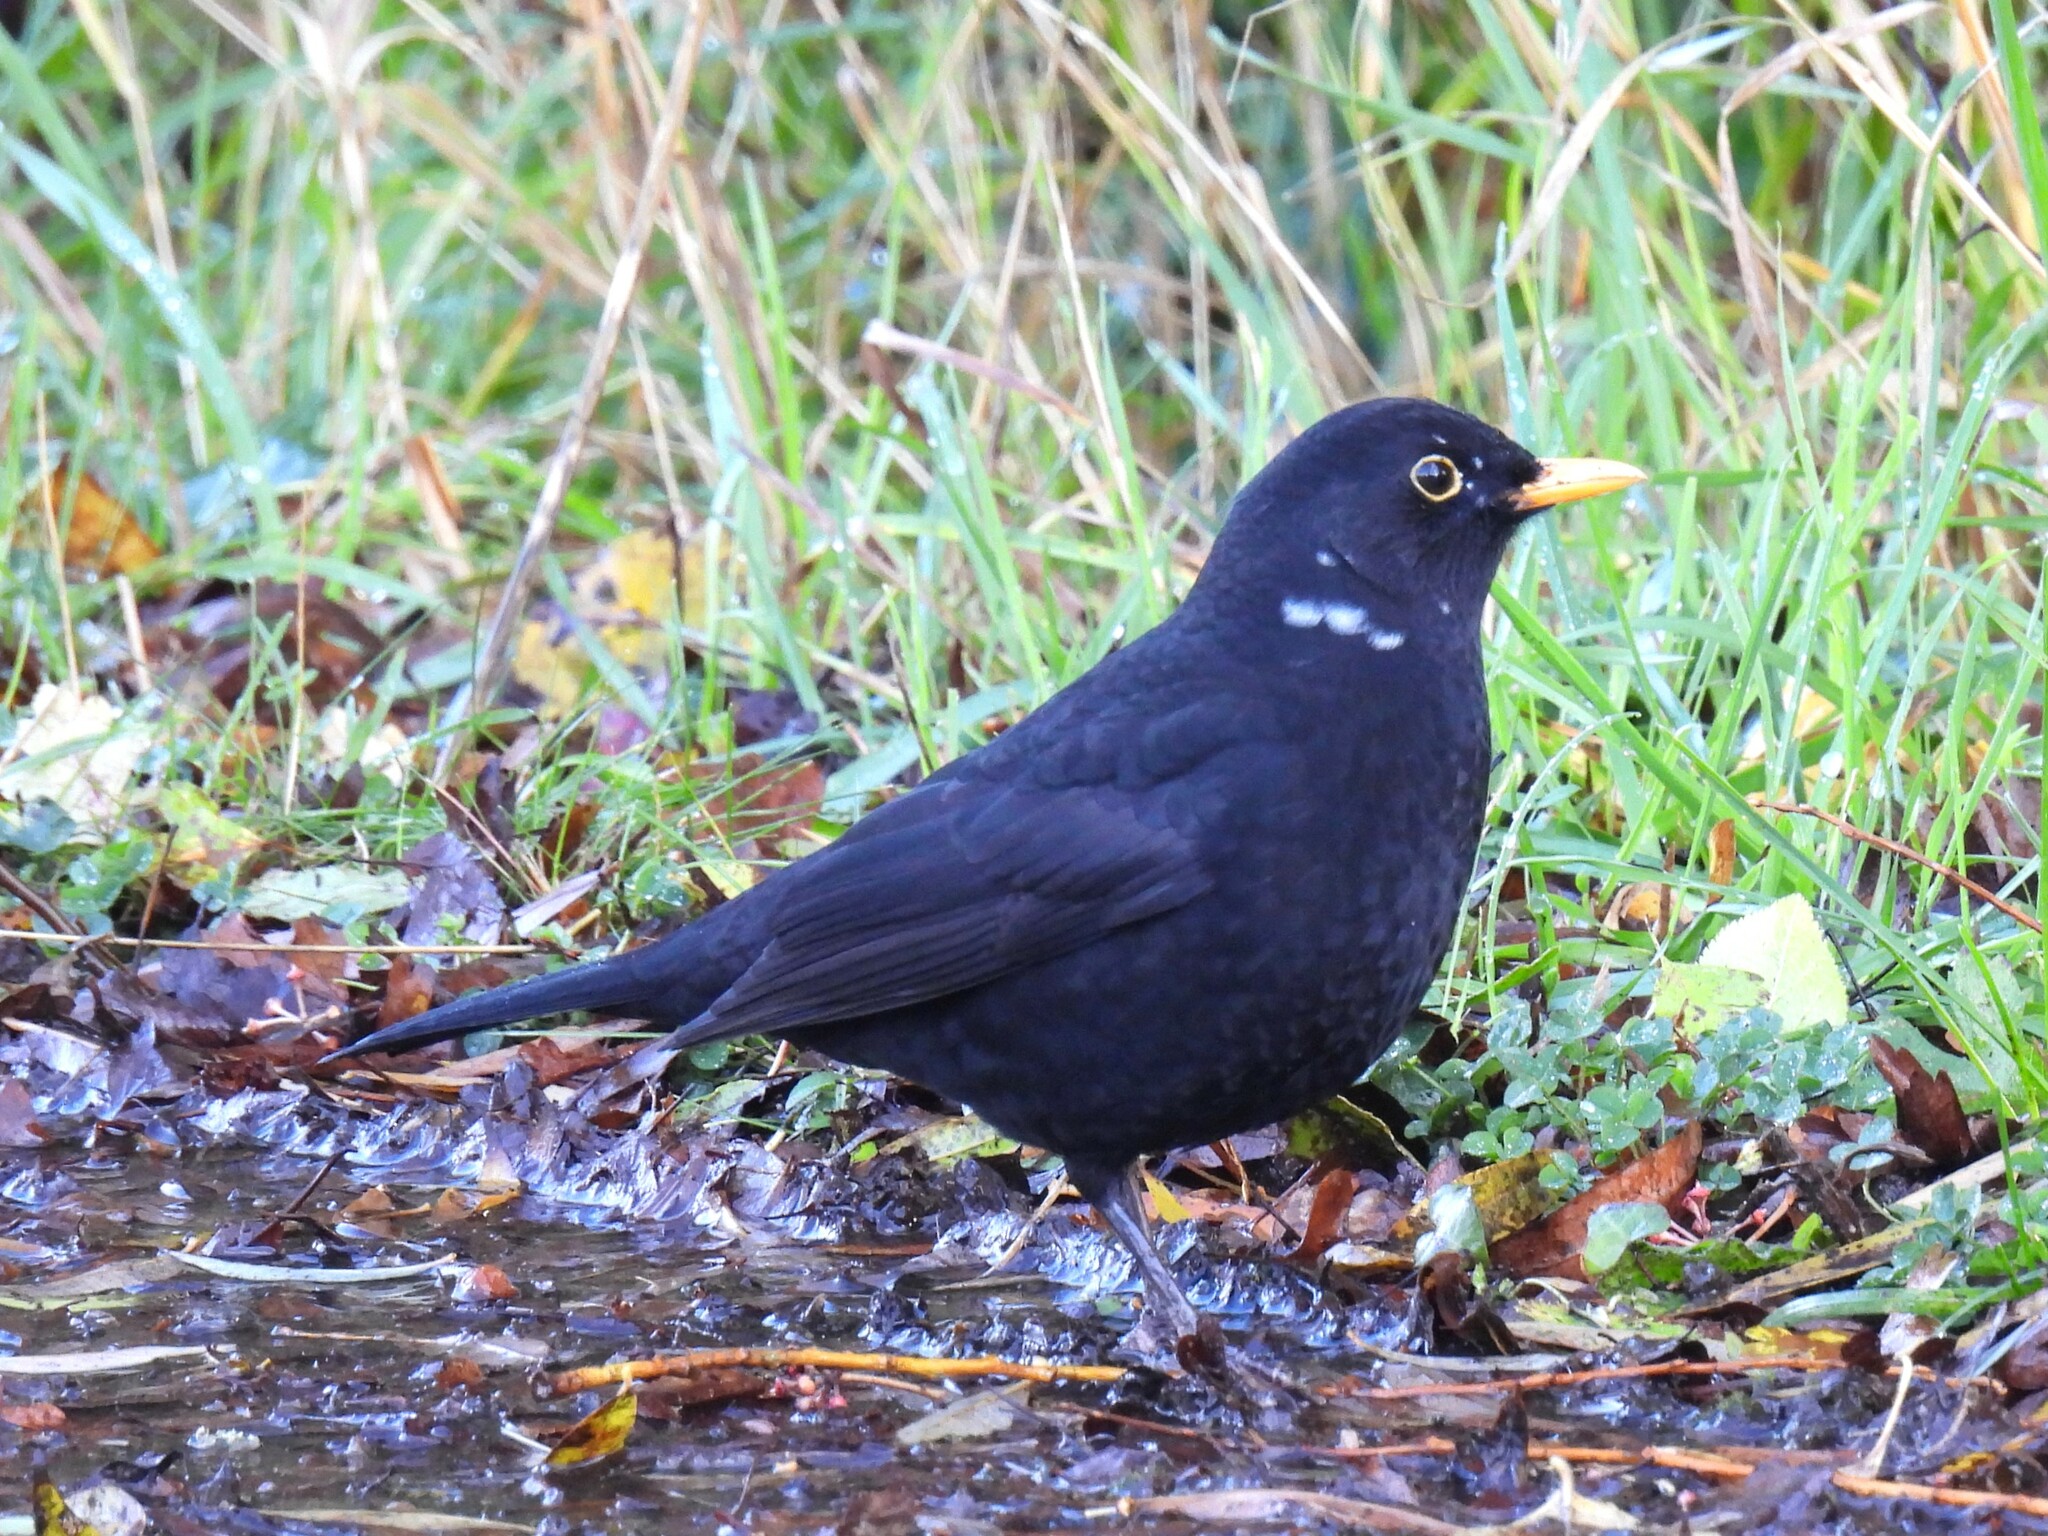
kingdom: Animalia
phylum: Chordata
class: Aves
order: Passeriformes
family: Turdidae
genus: Turdus
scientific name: Turdus merula
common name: Common blackbird
